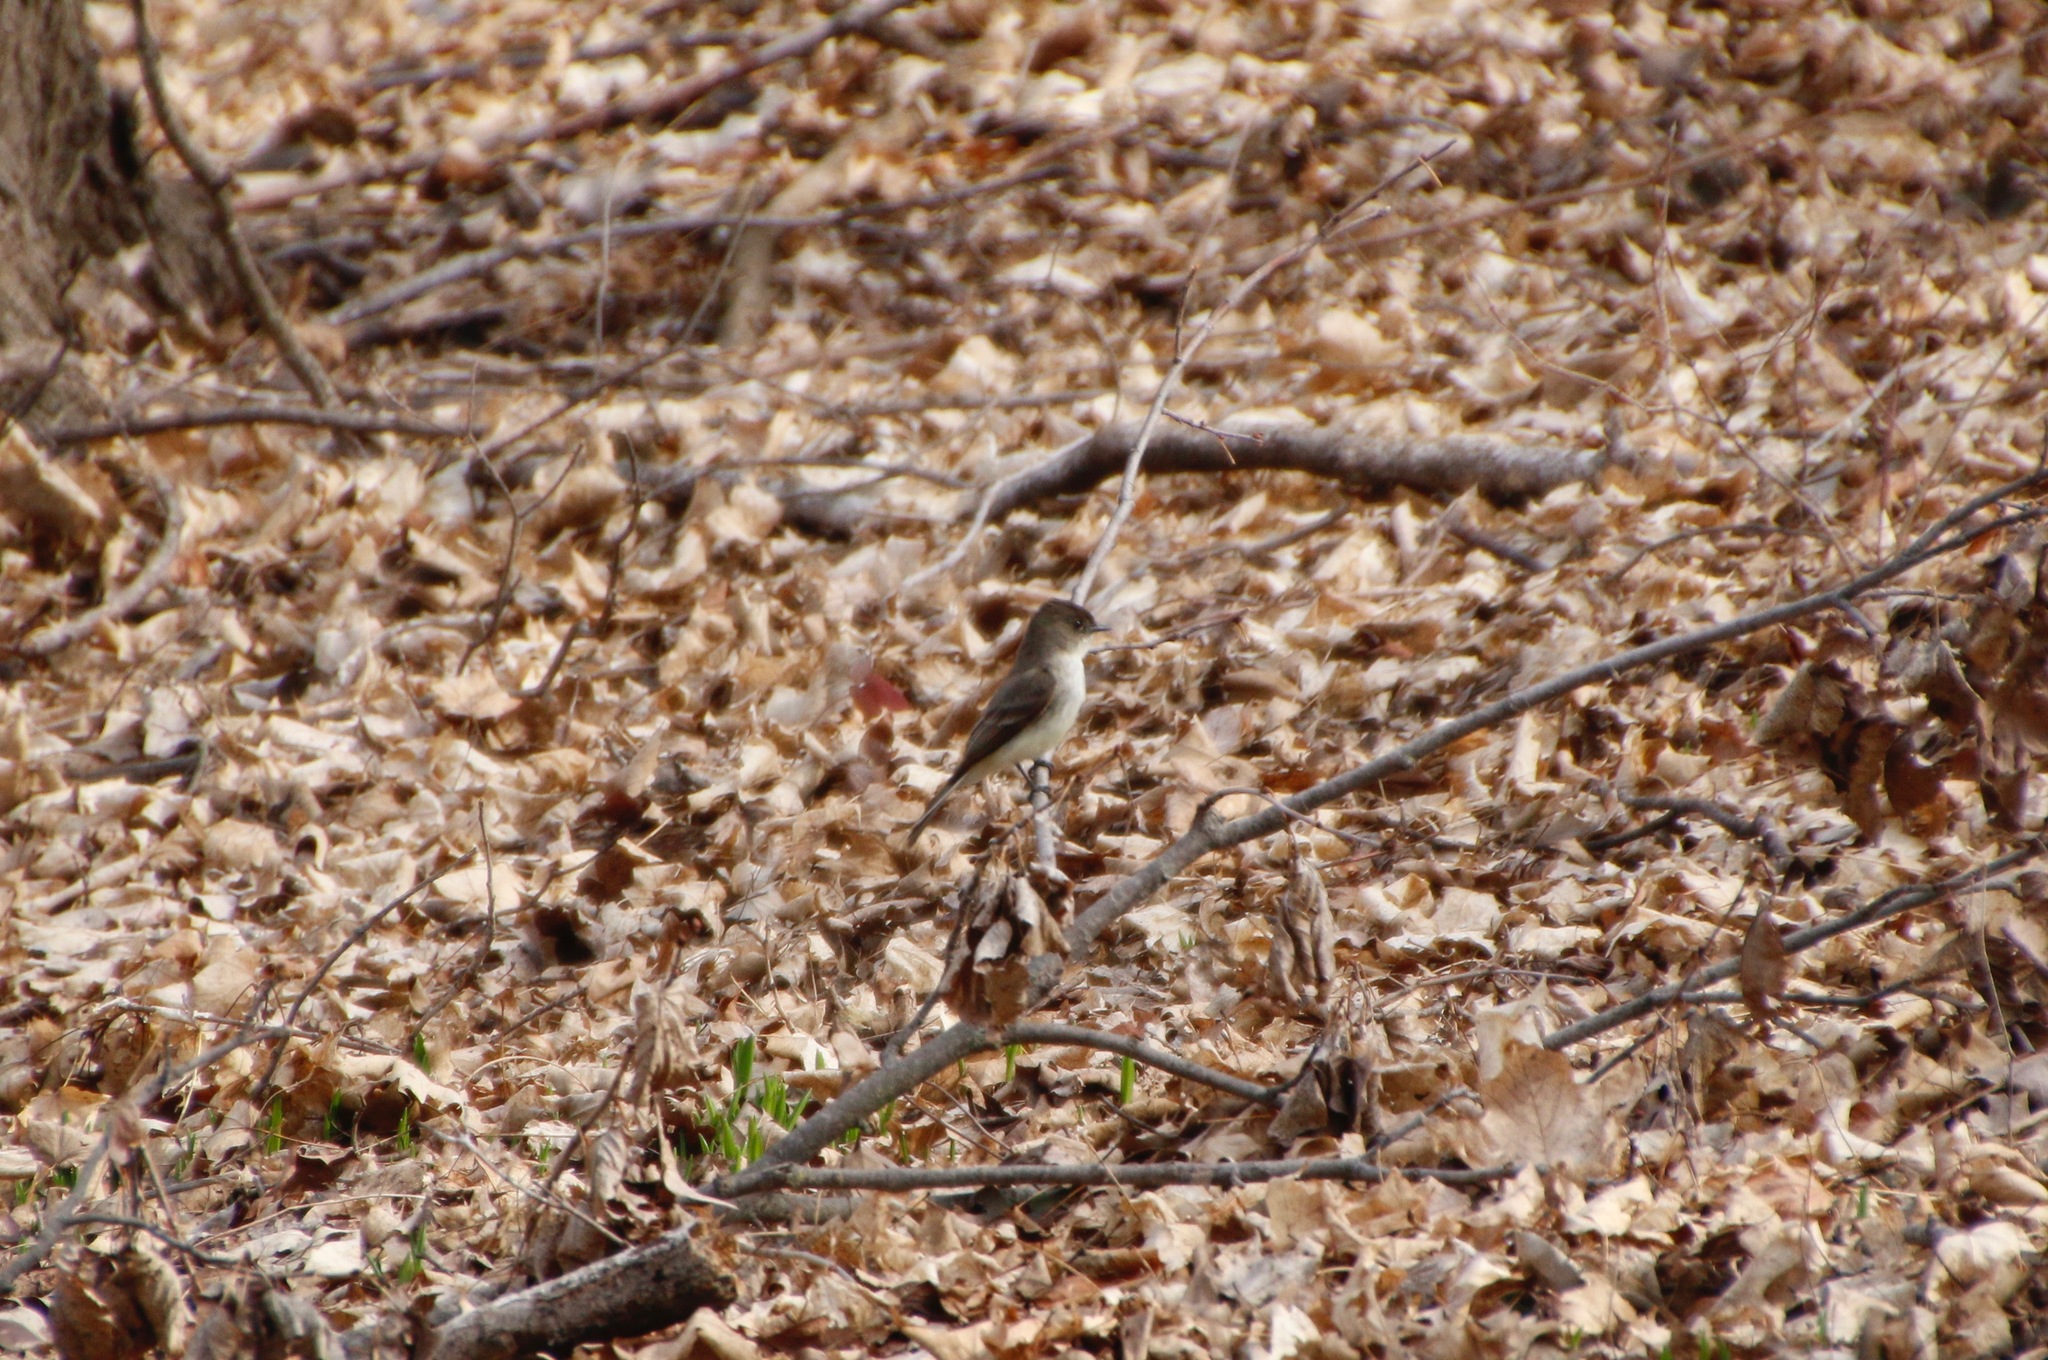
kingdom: Animalia
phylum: Chordata
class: Aves
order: Passeriformes
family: Tyrannidae
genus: Sayornis
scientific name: Sayornis phoebe
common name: Eastern phoebe
